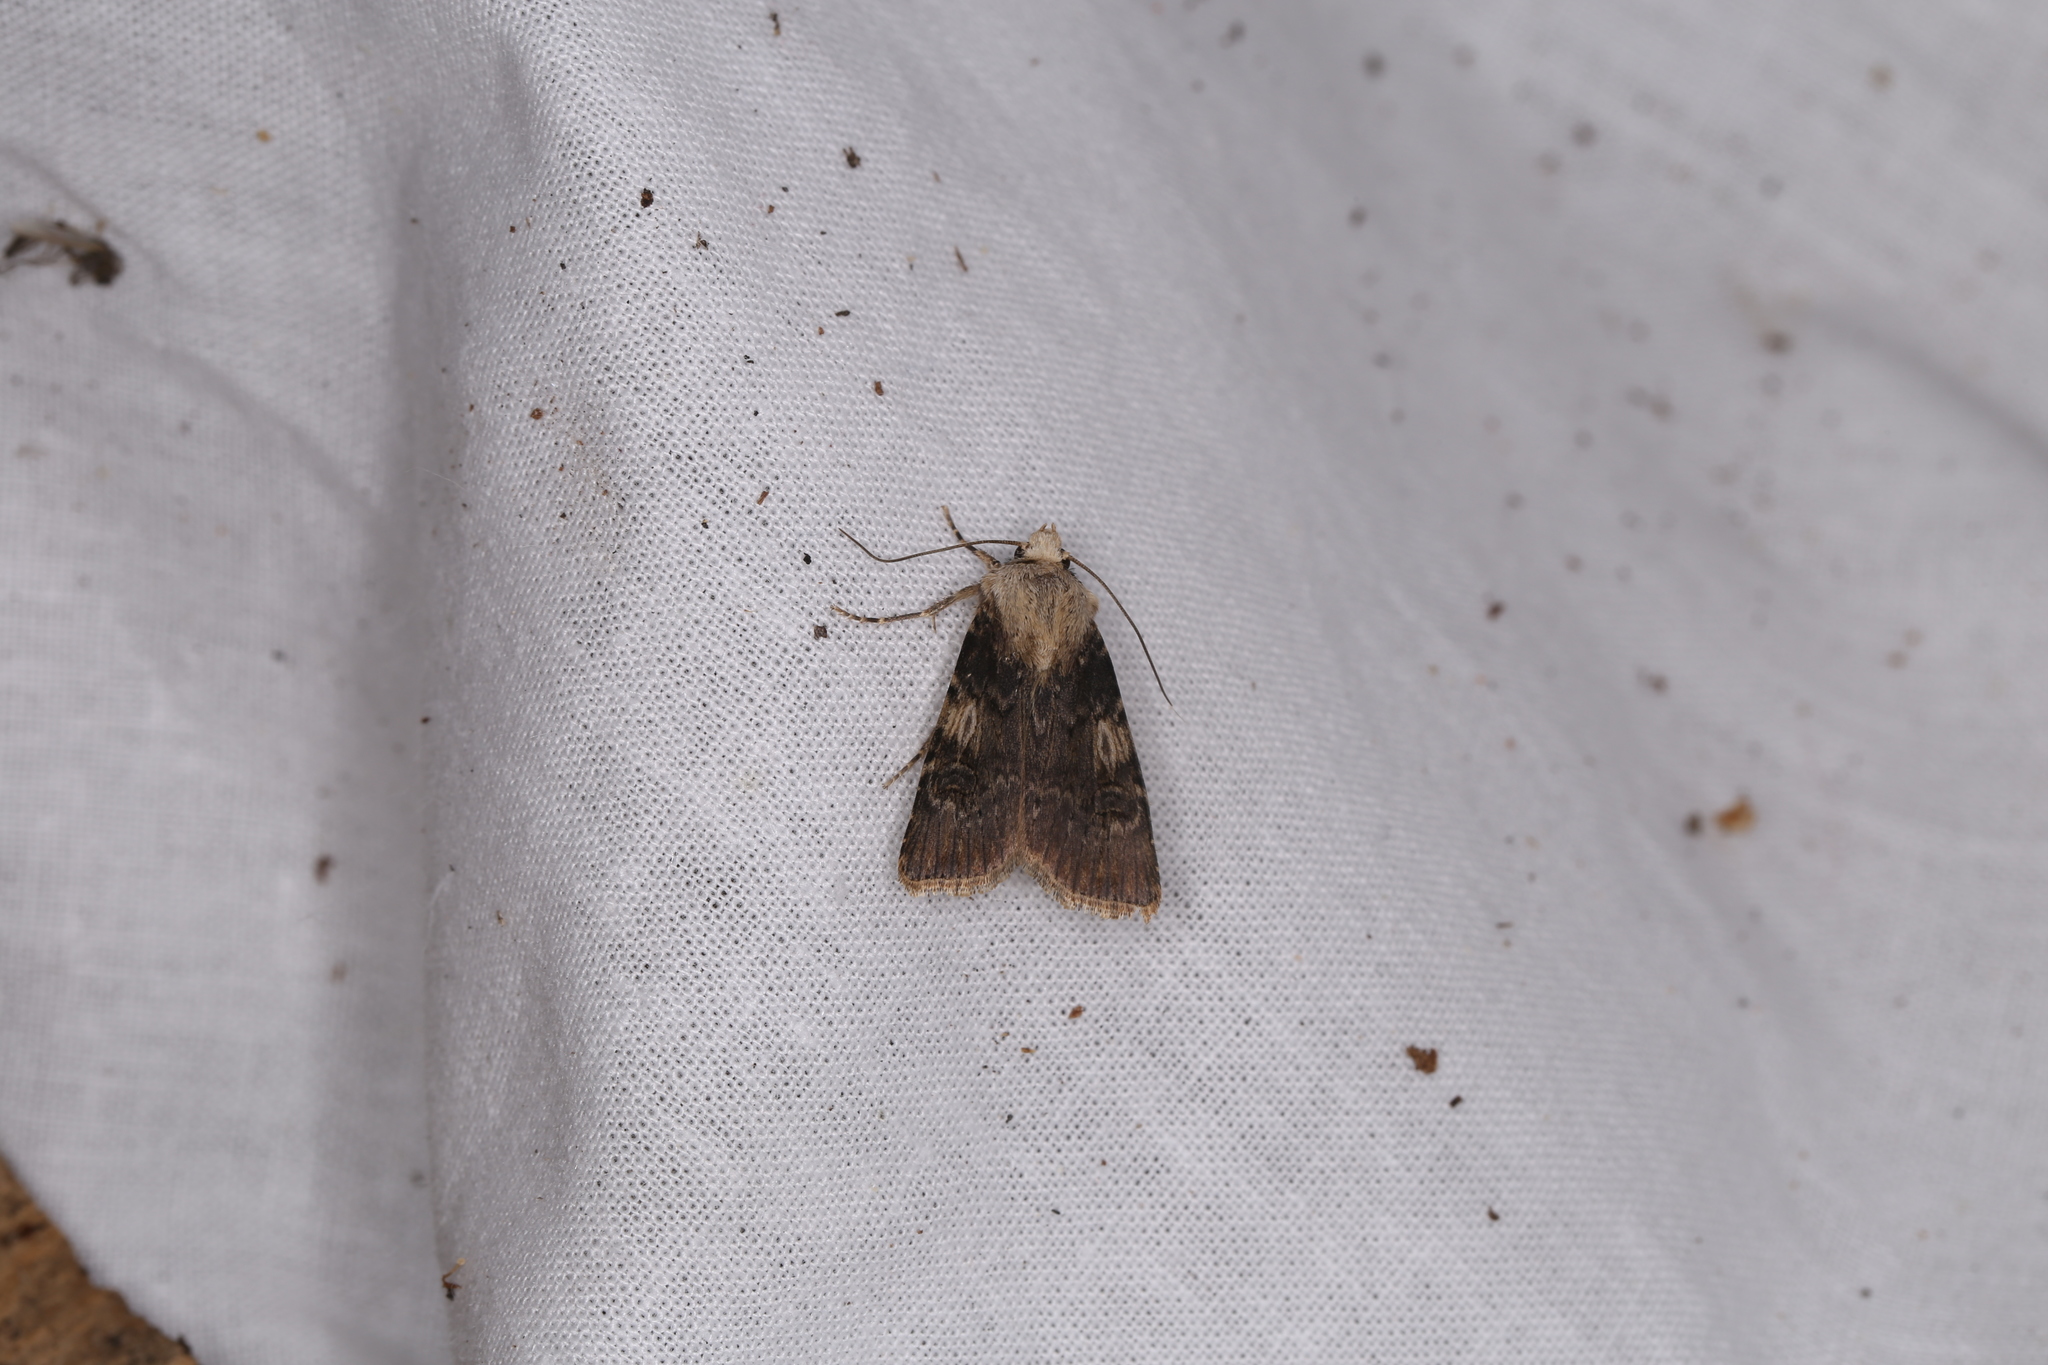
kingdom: Animalia
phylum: Arthropoda
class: Insecta
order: Lepidoptera
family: Noctuidae
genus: Agrotis
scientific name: Agrotis puta
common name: Shuttle-shaped dart
